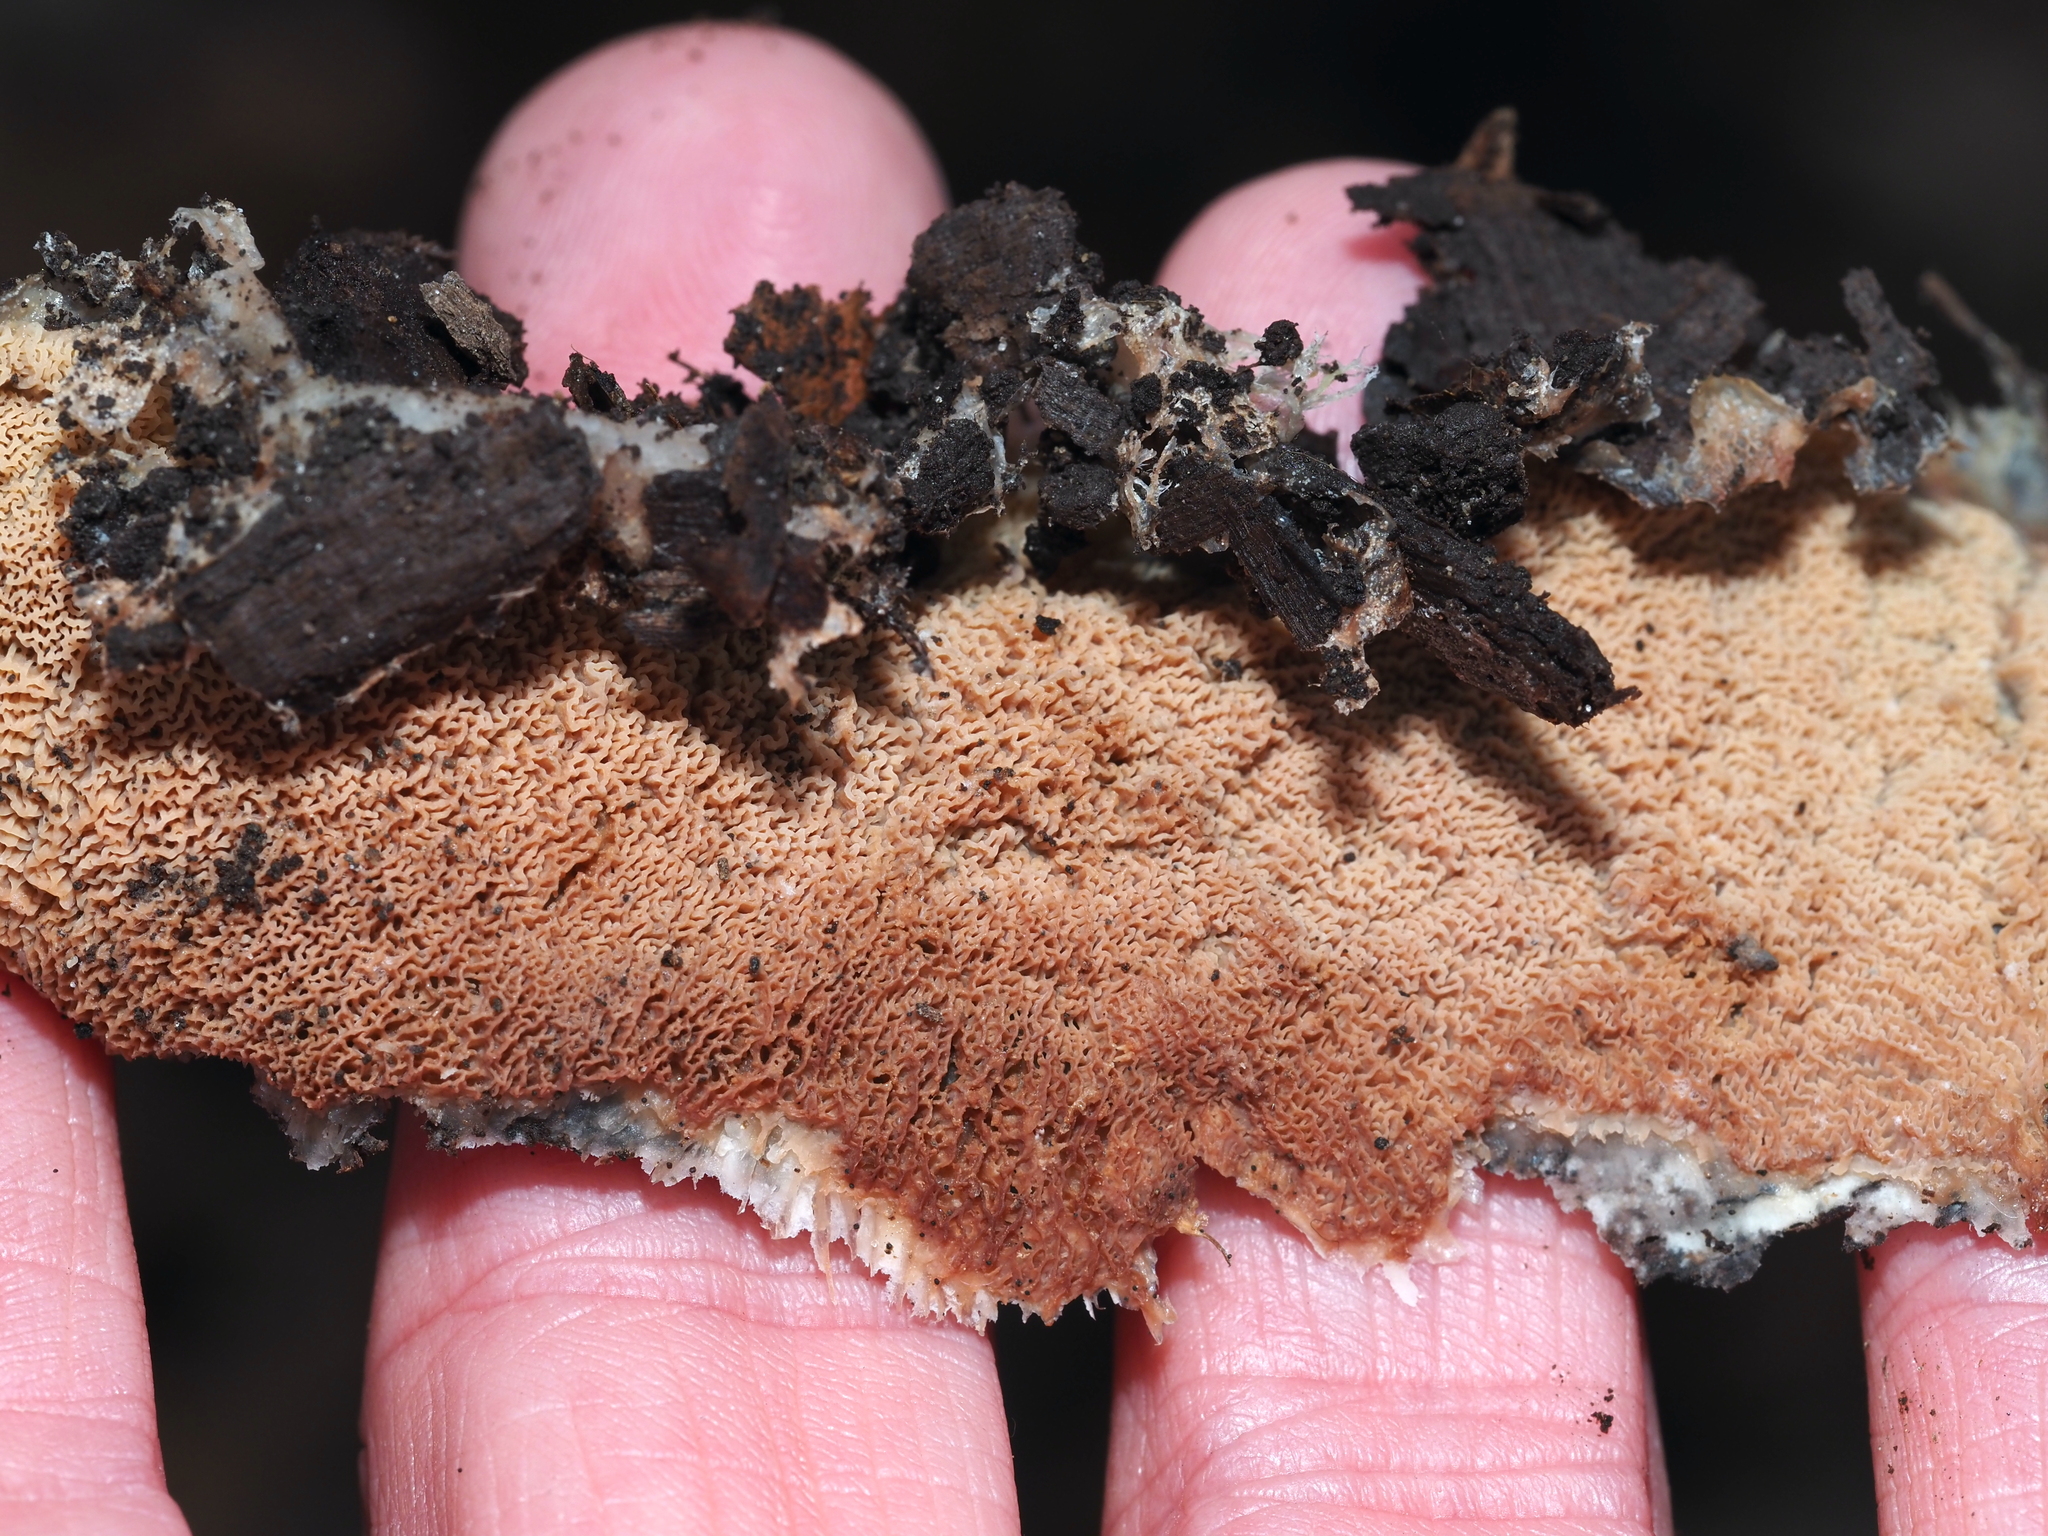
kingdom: Fungi
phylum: Basidiomycota
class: Agaricomycetes
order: Polyporales
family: Meruliaceae
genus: Phlebia
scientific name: Phlebia radiata
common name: Wrinkled crust
